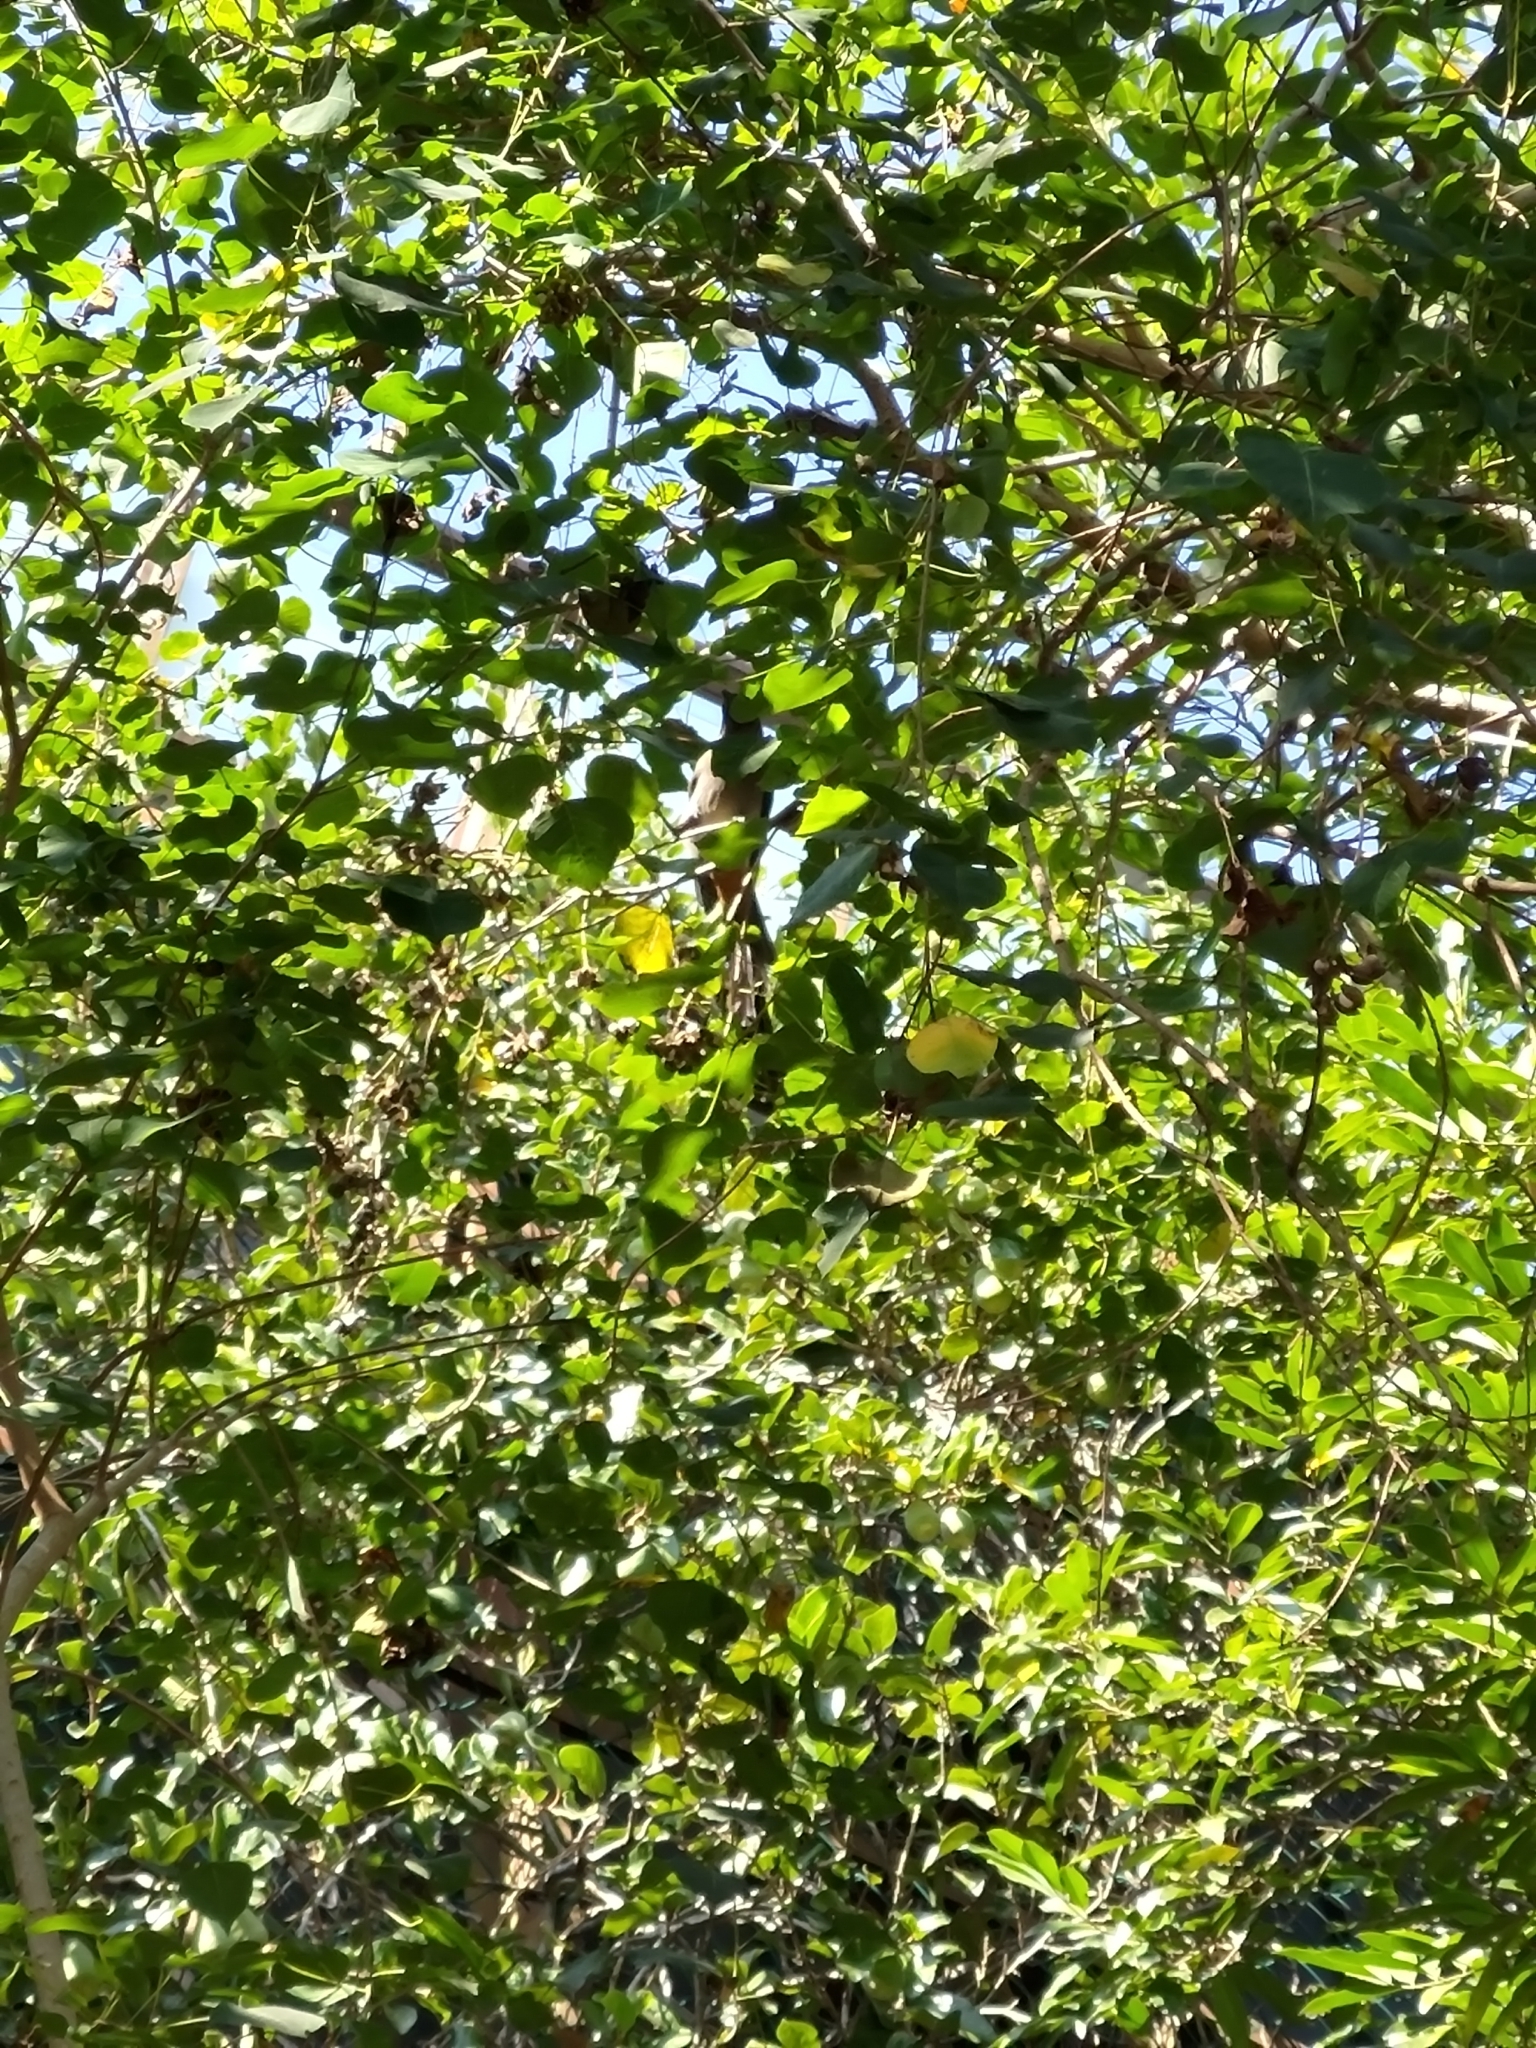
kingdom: Animalia
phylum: Chordata
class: Aves
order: Passeriformes
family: Corvidae
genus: Dendrocitta
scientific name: Dendrocitta formosae
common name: Grey treepie
